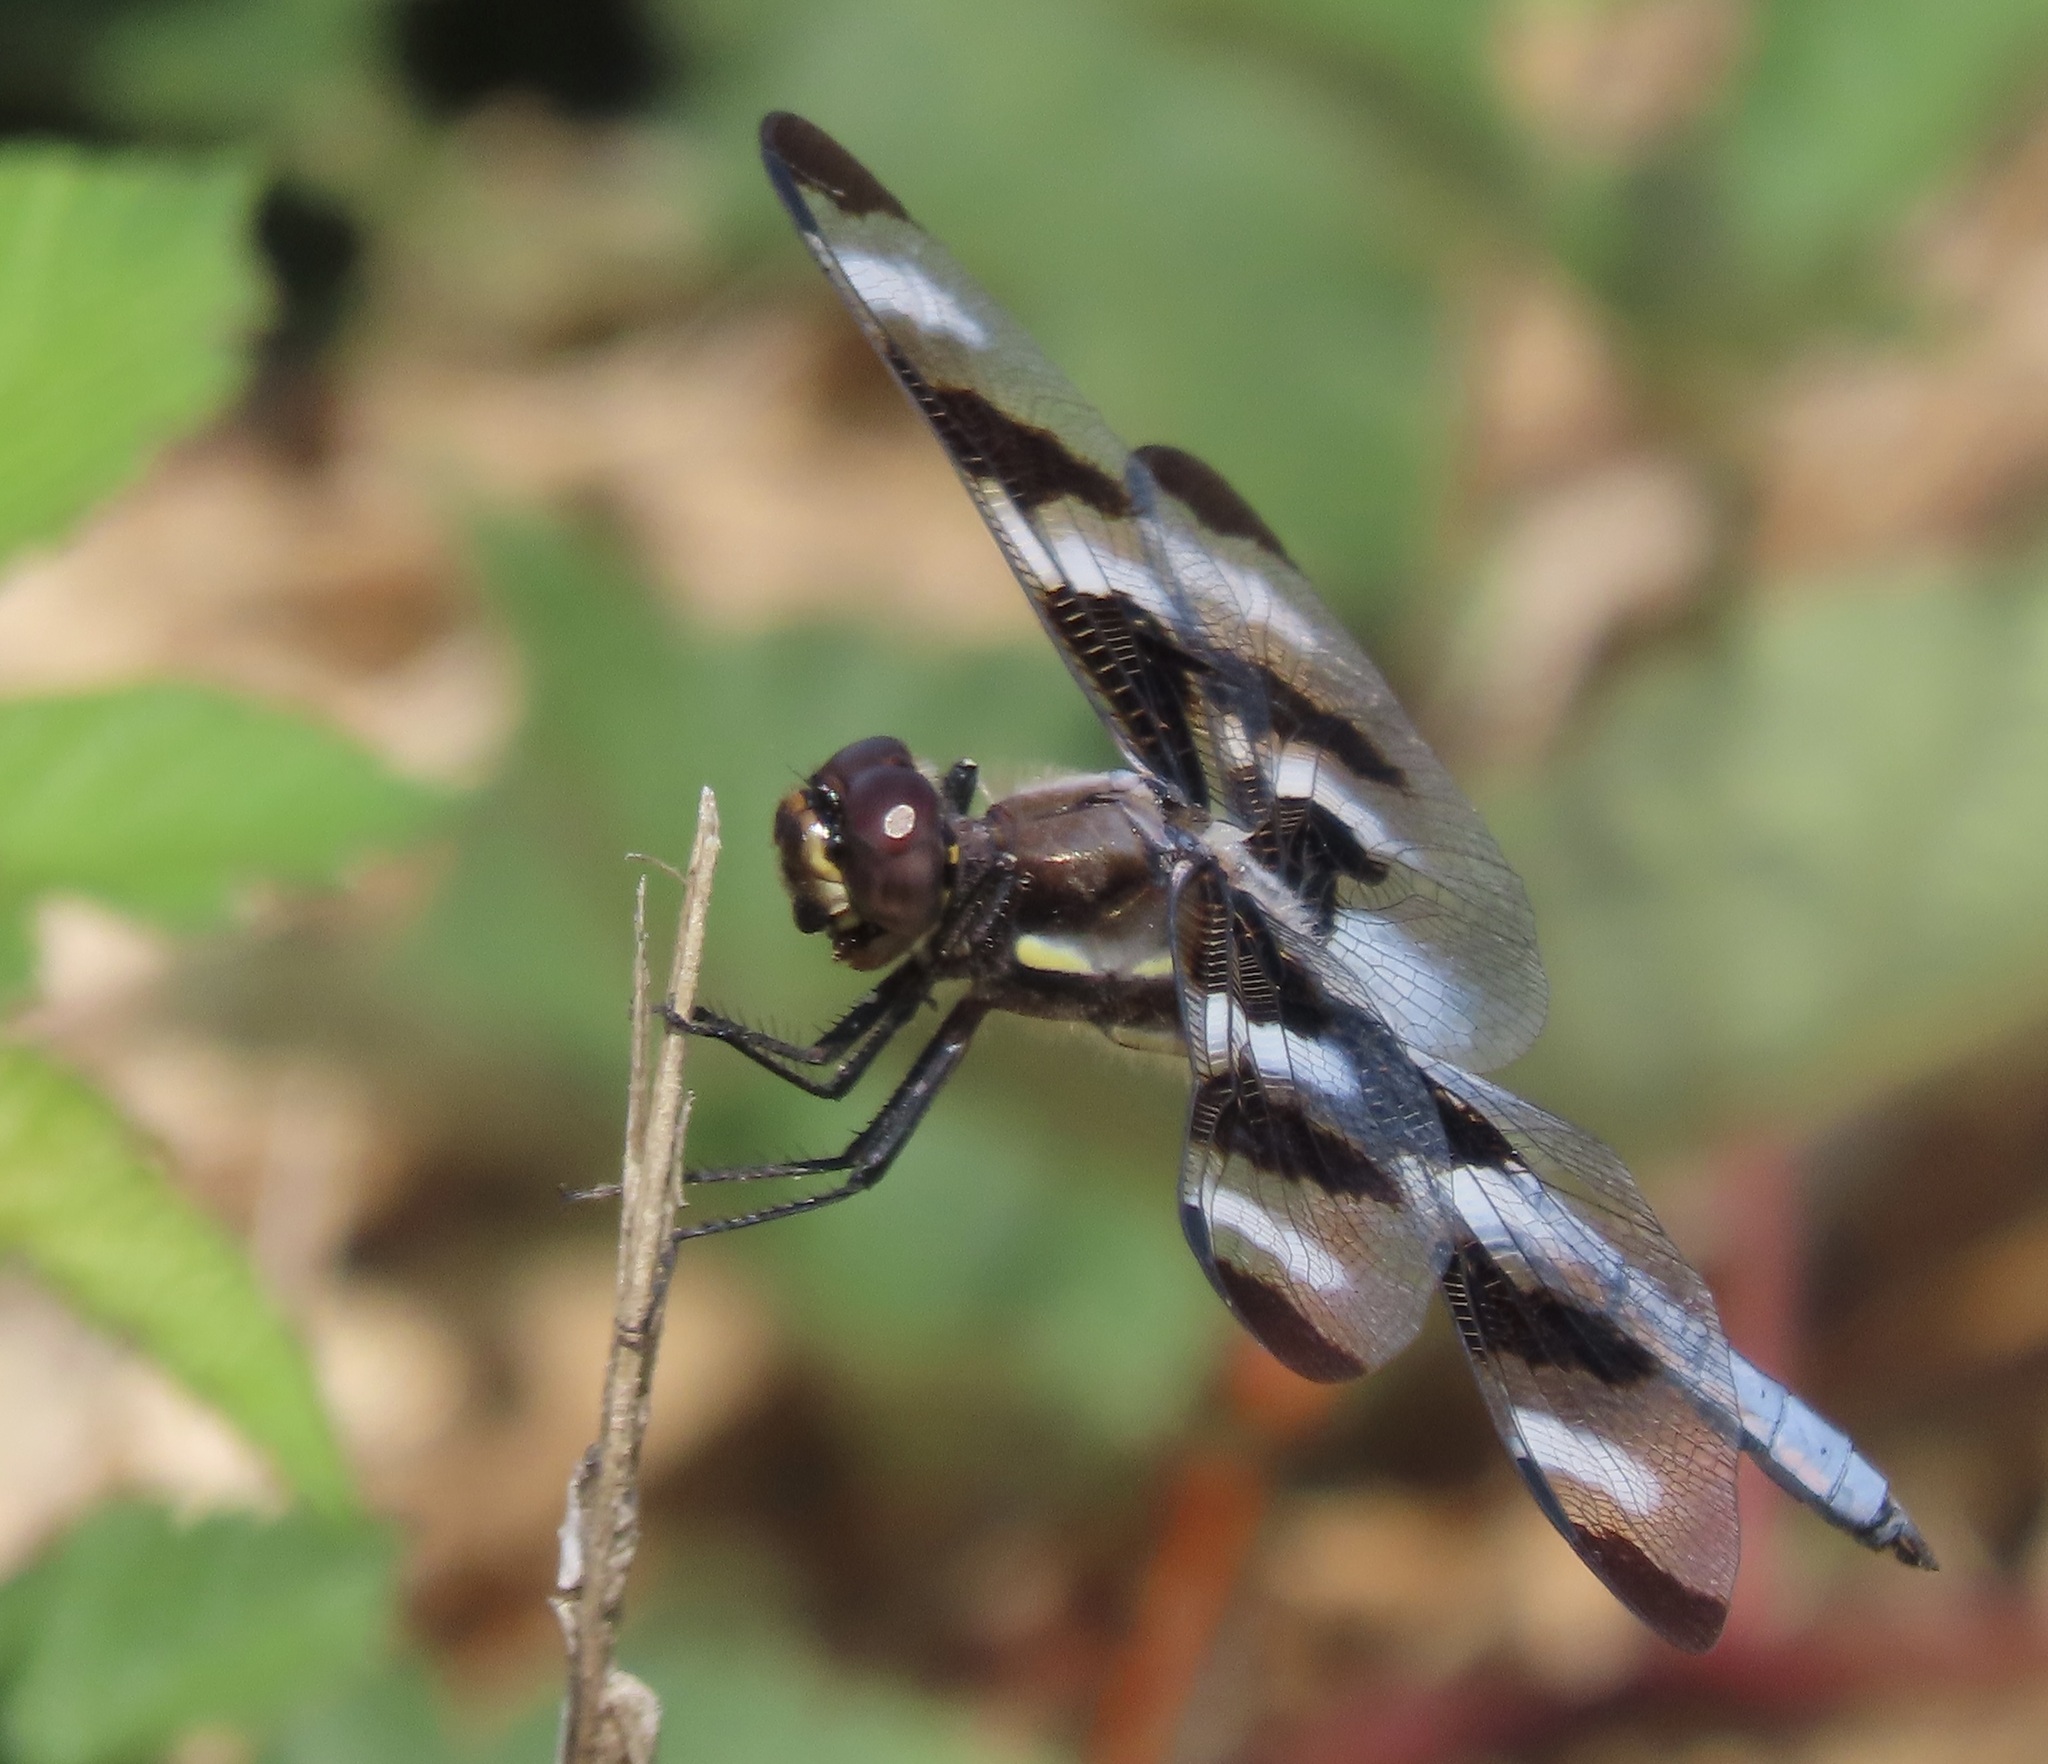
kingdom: Animalia
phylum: Arthropoda
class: Insecta
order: Odonata
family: Libellulidae
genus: Libellula
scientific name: Libellula pulchella
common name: Twelve-spotted skimmer
